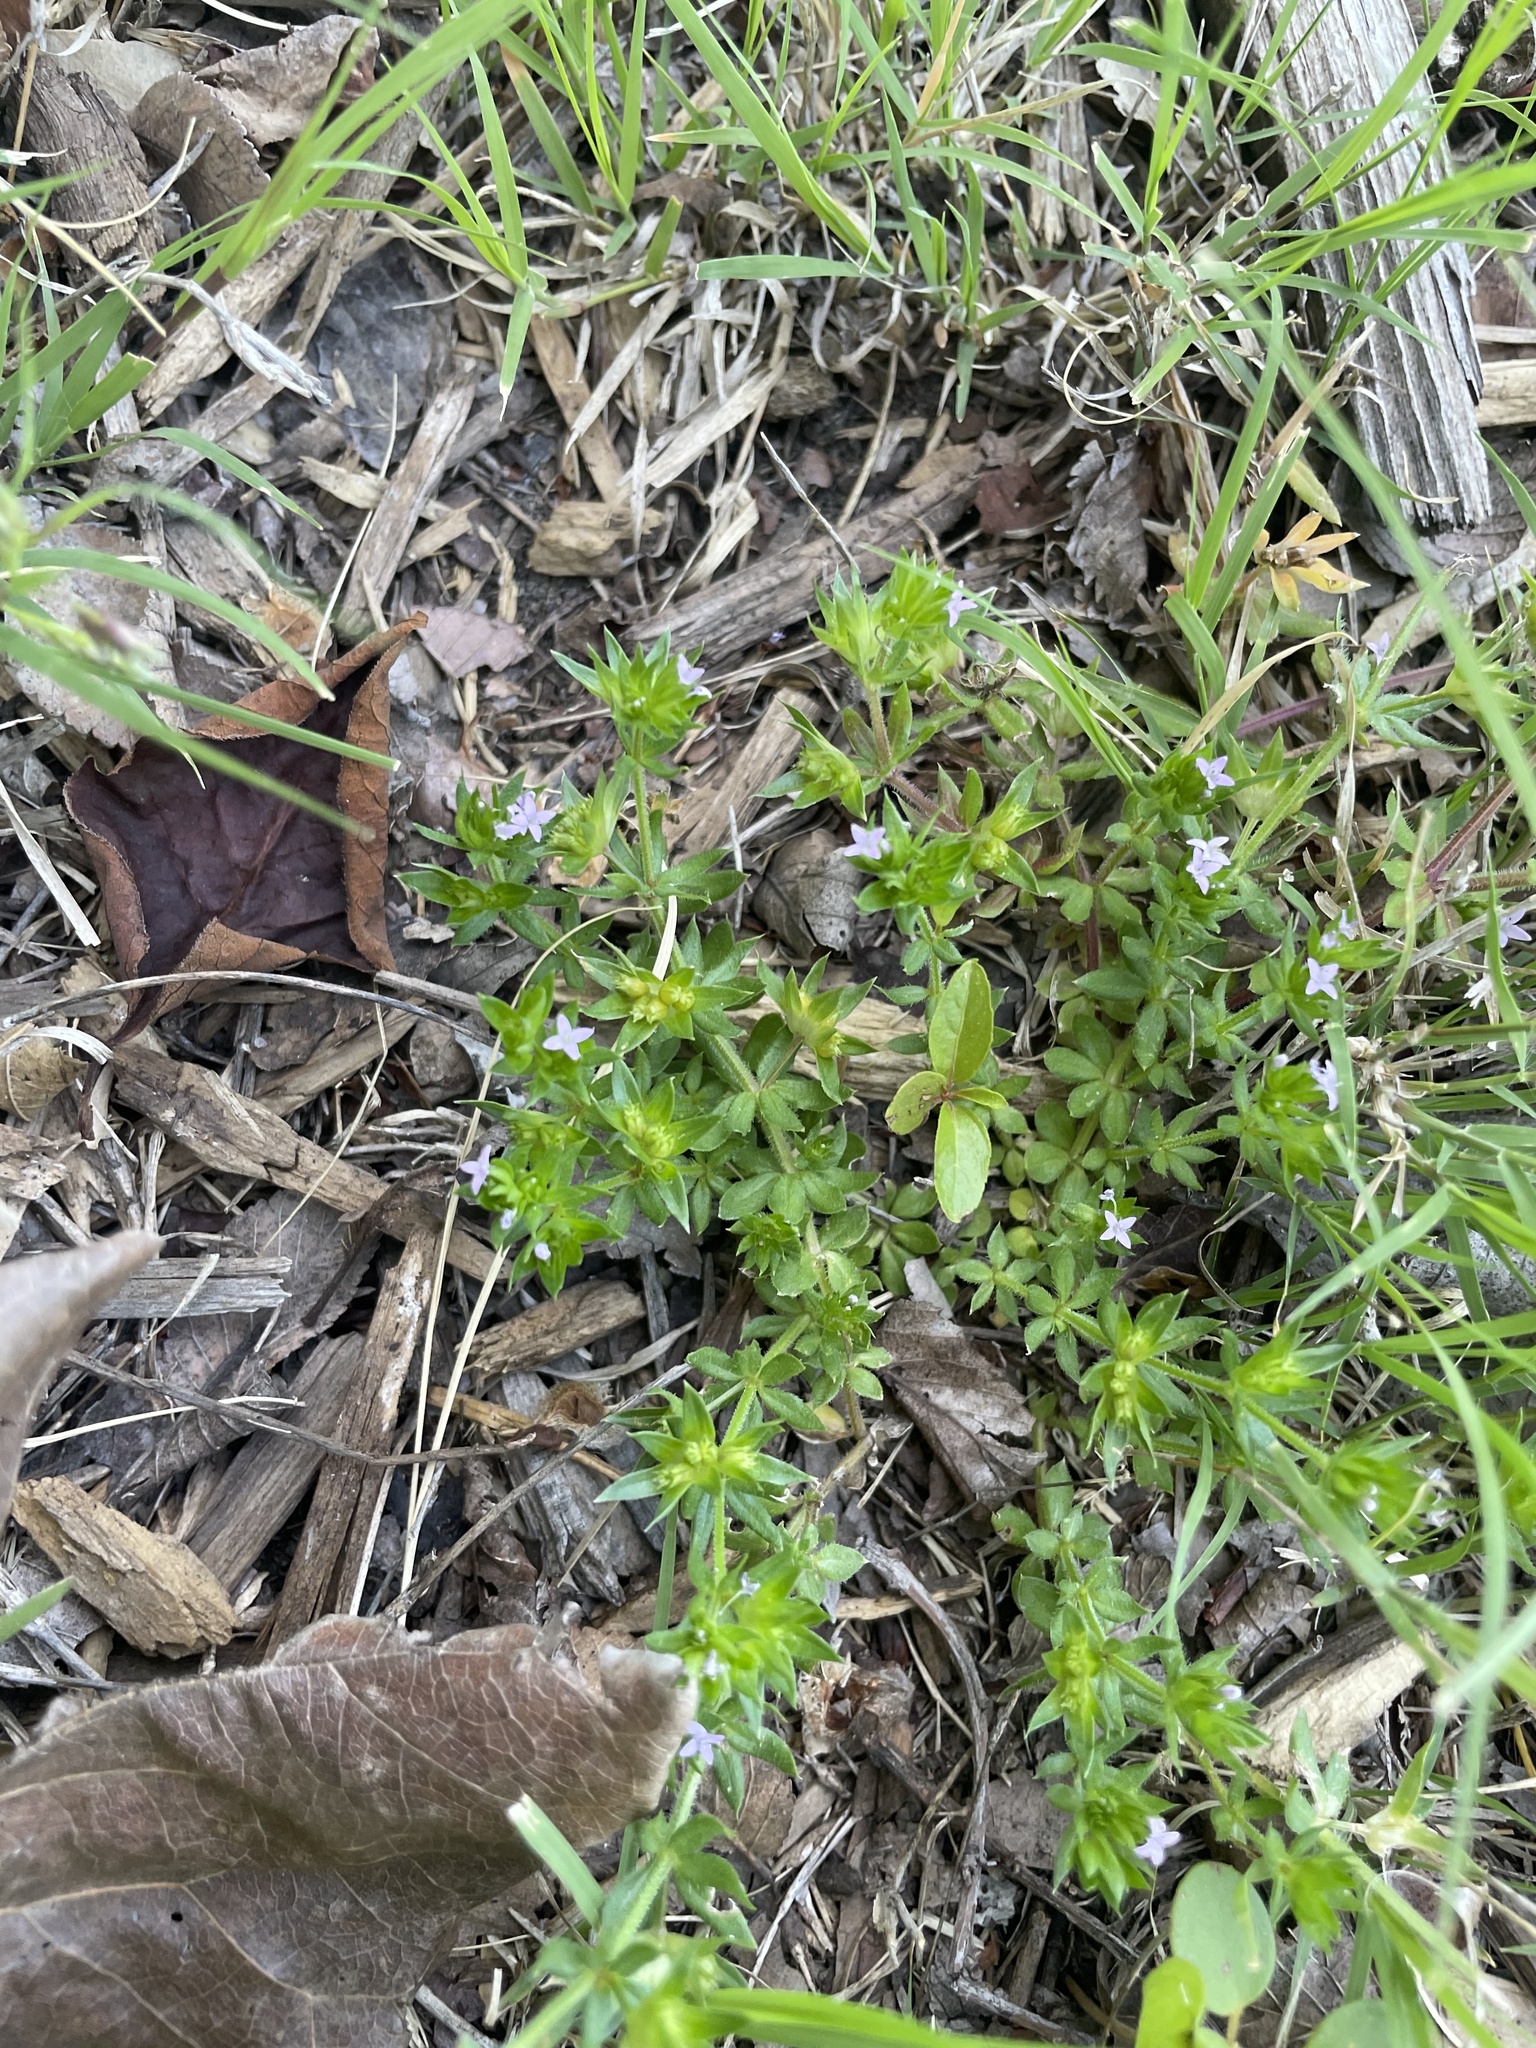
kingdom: Plantae
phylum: Tracheophyta
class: Magnoliopsida
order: Gentianales
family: Rubiaceae
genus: Sherardia
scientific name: Sherardia arvensis
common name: Field madder
